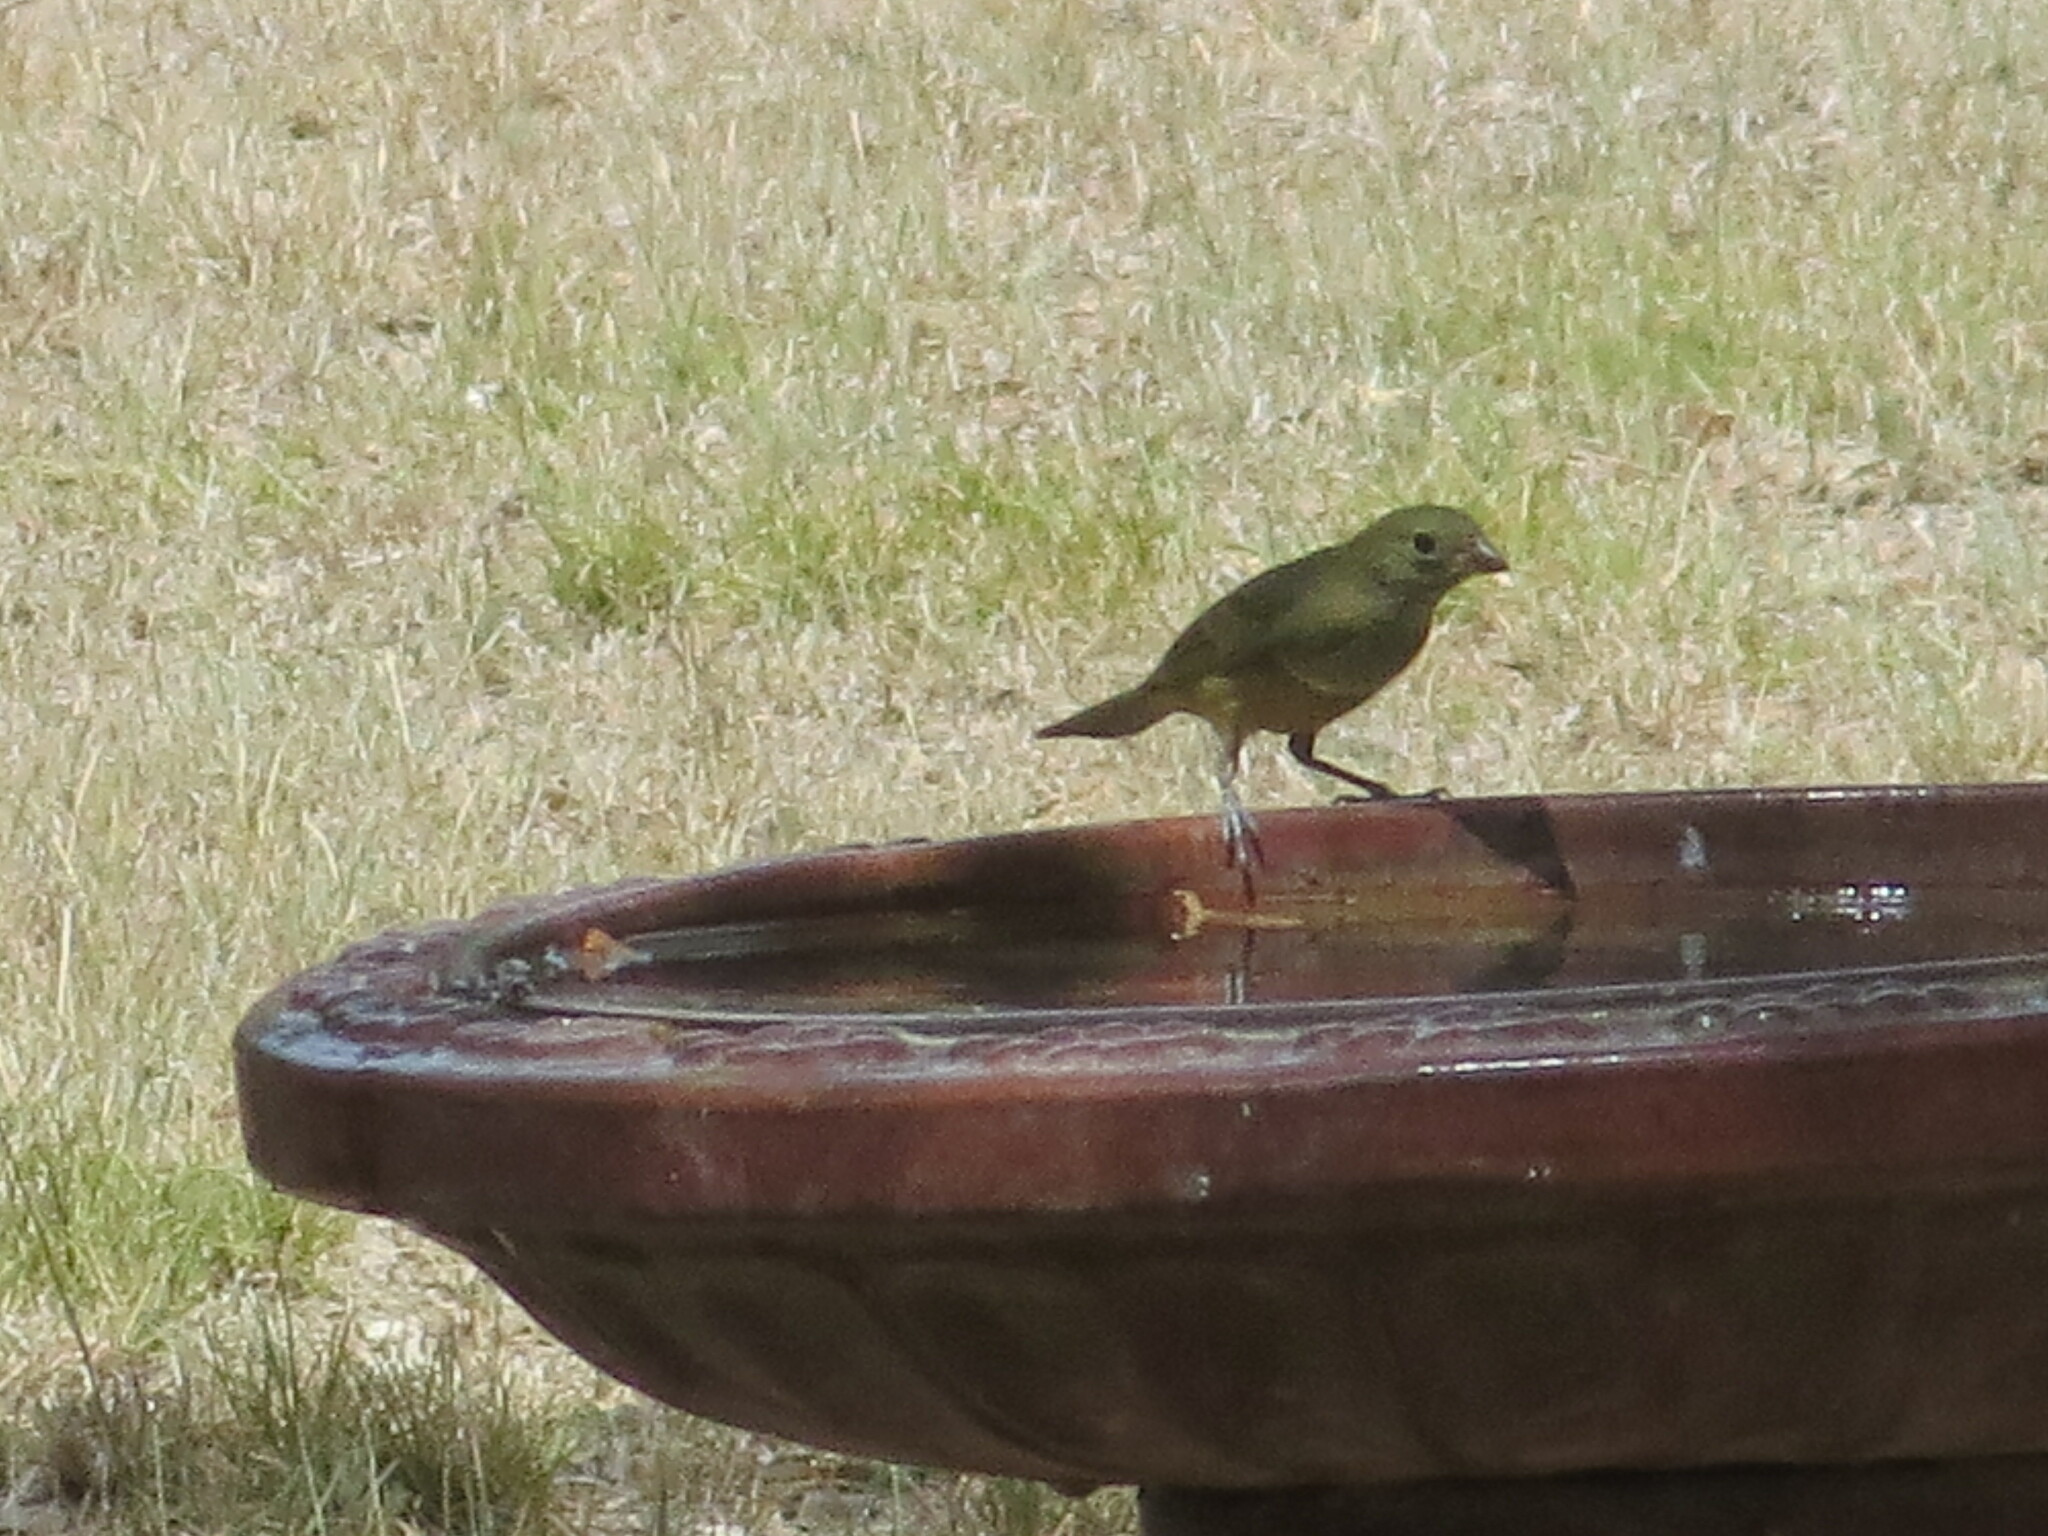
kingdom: Animalia
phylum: Chordata
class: Aves
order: Passeriformes
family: Cardinalidae
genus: Passerina
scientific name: Passerina ciris
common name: Painted bunting
